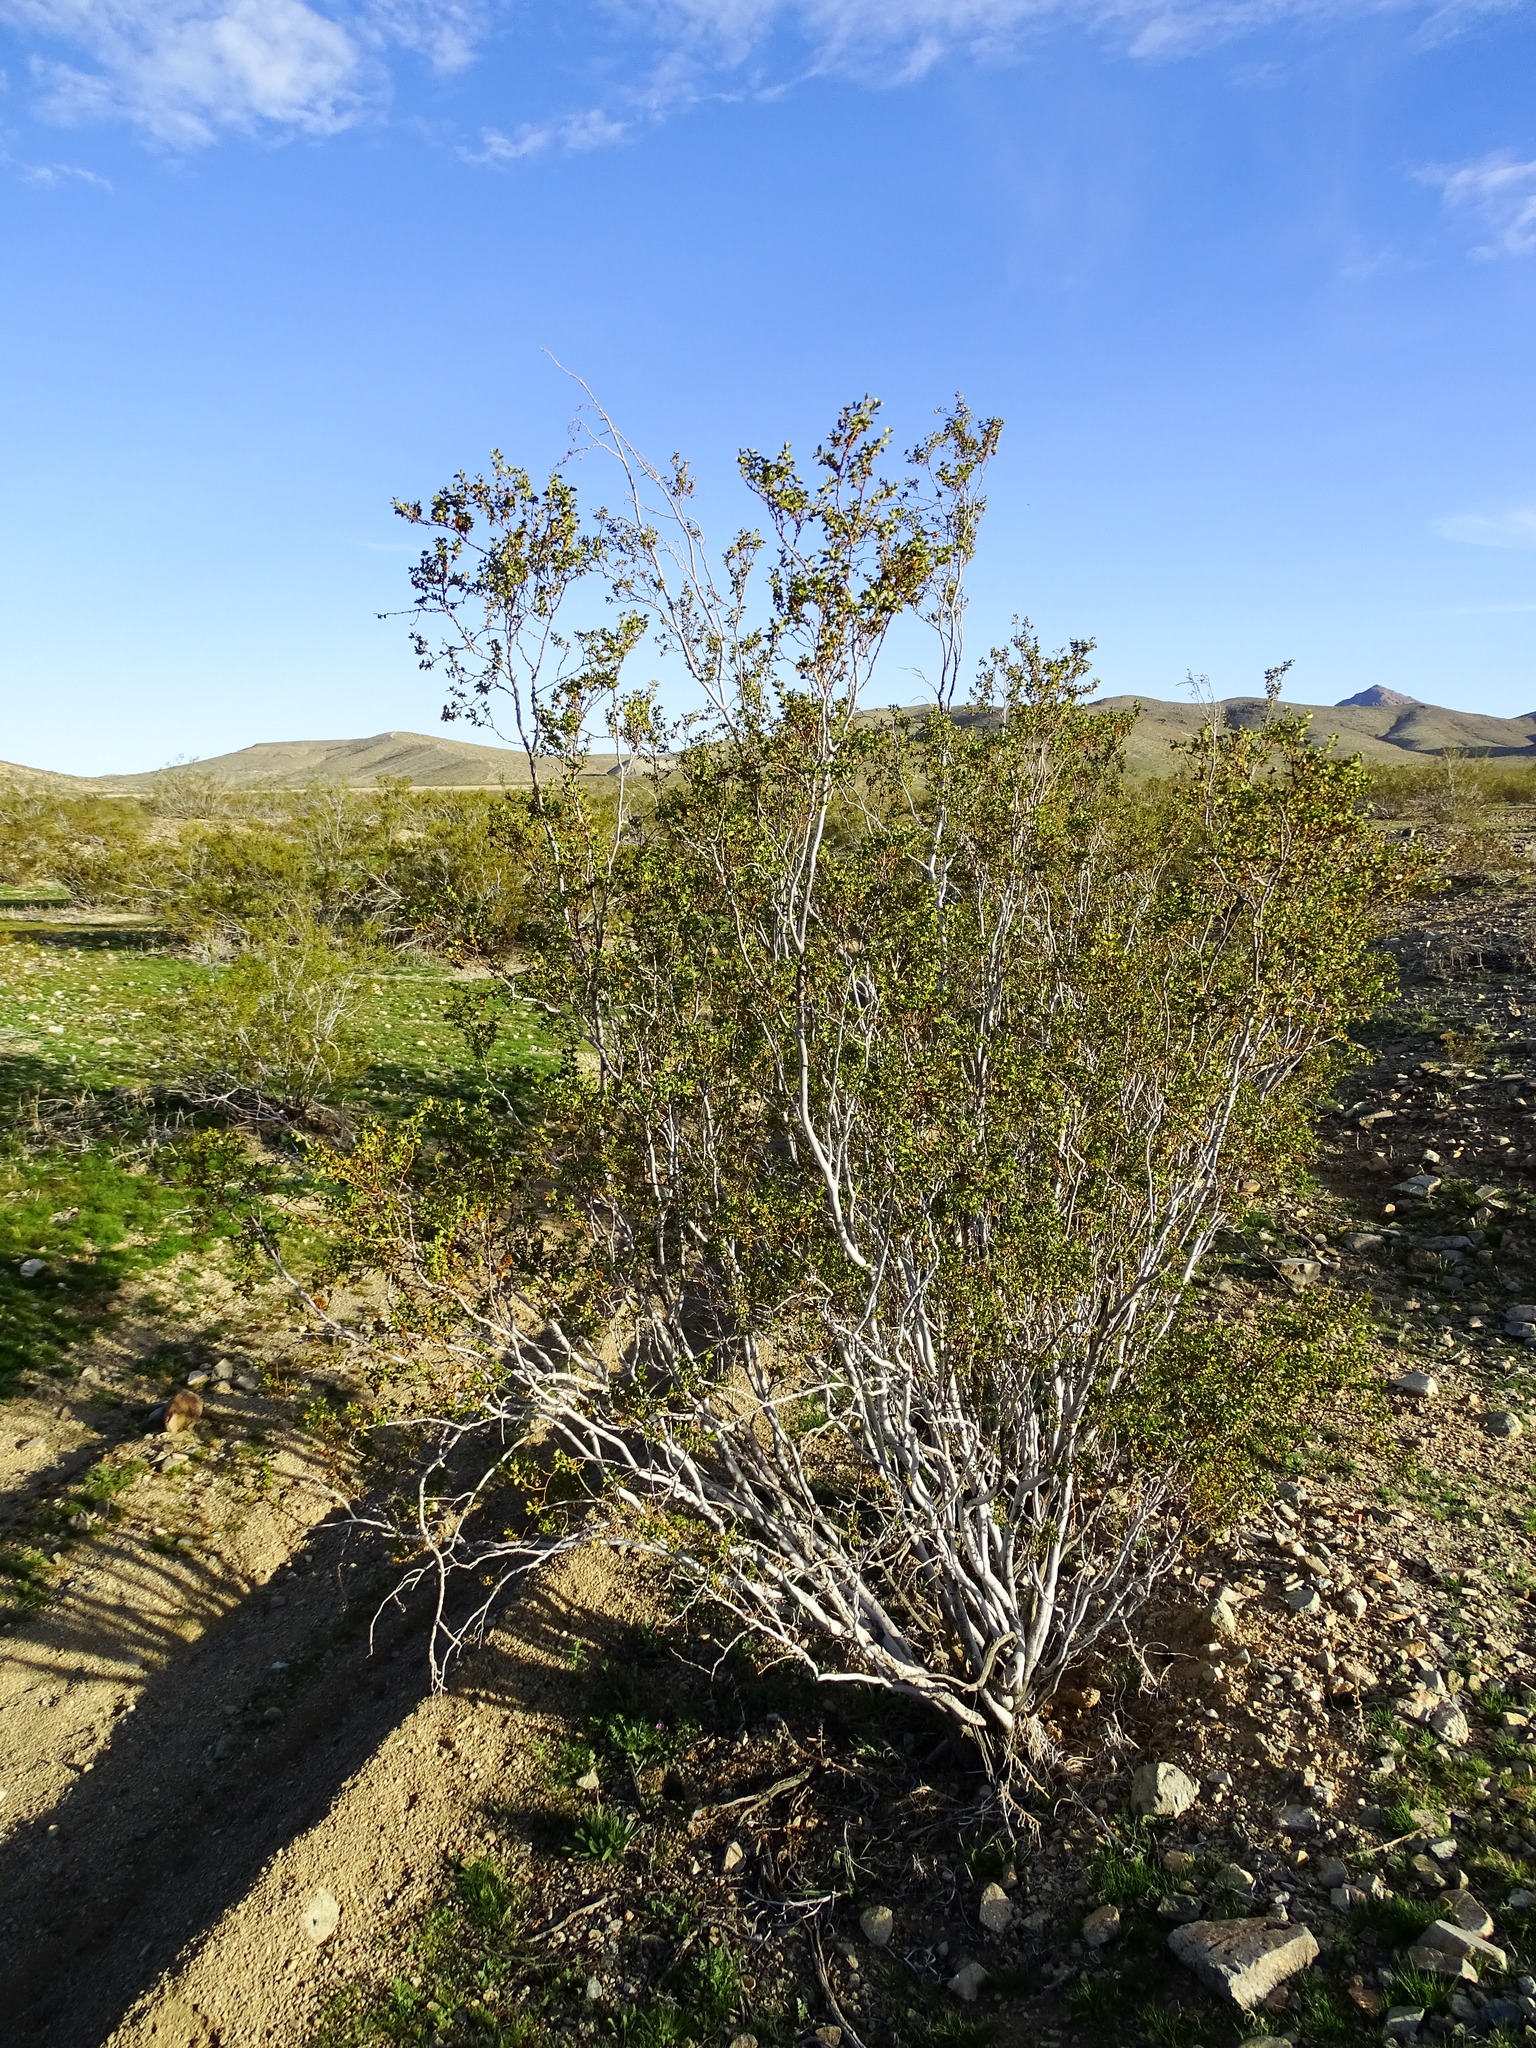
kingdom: Plantae
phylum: Tracheophyta
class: Magnoliopsida
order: Zygophyllales
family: Zygophyllaceae
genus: Larrea
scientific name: Larrea tridentata
